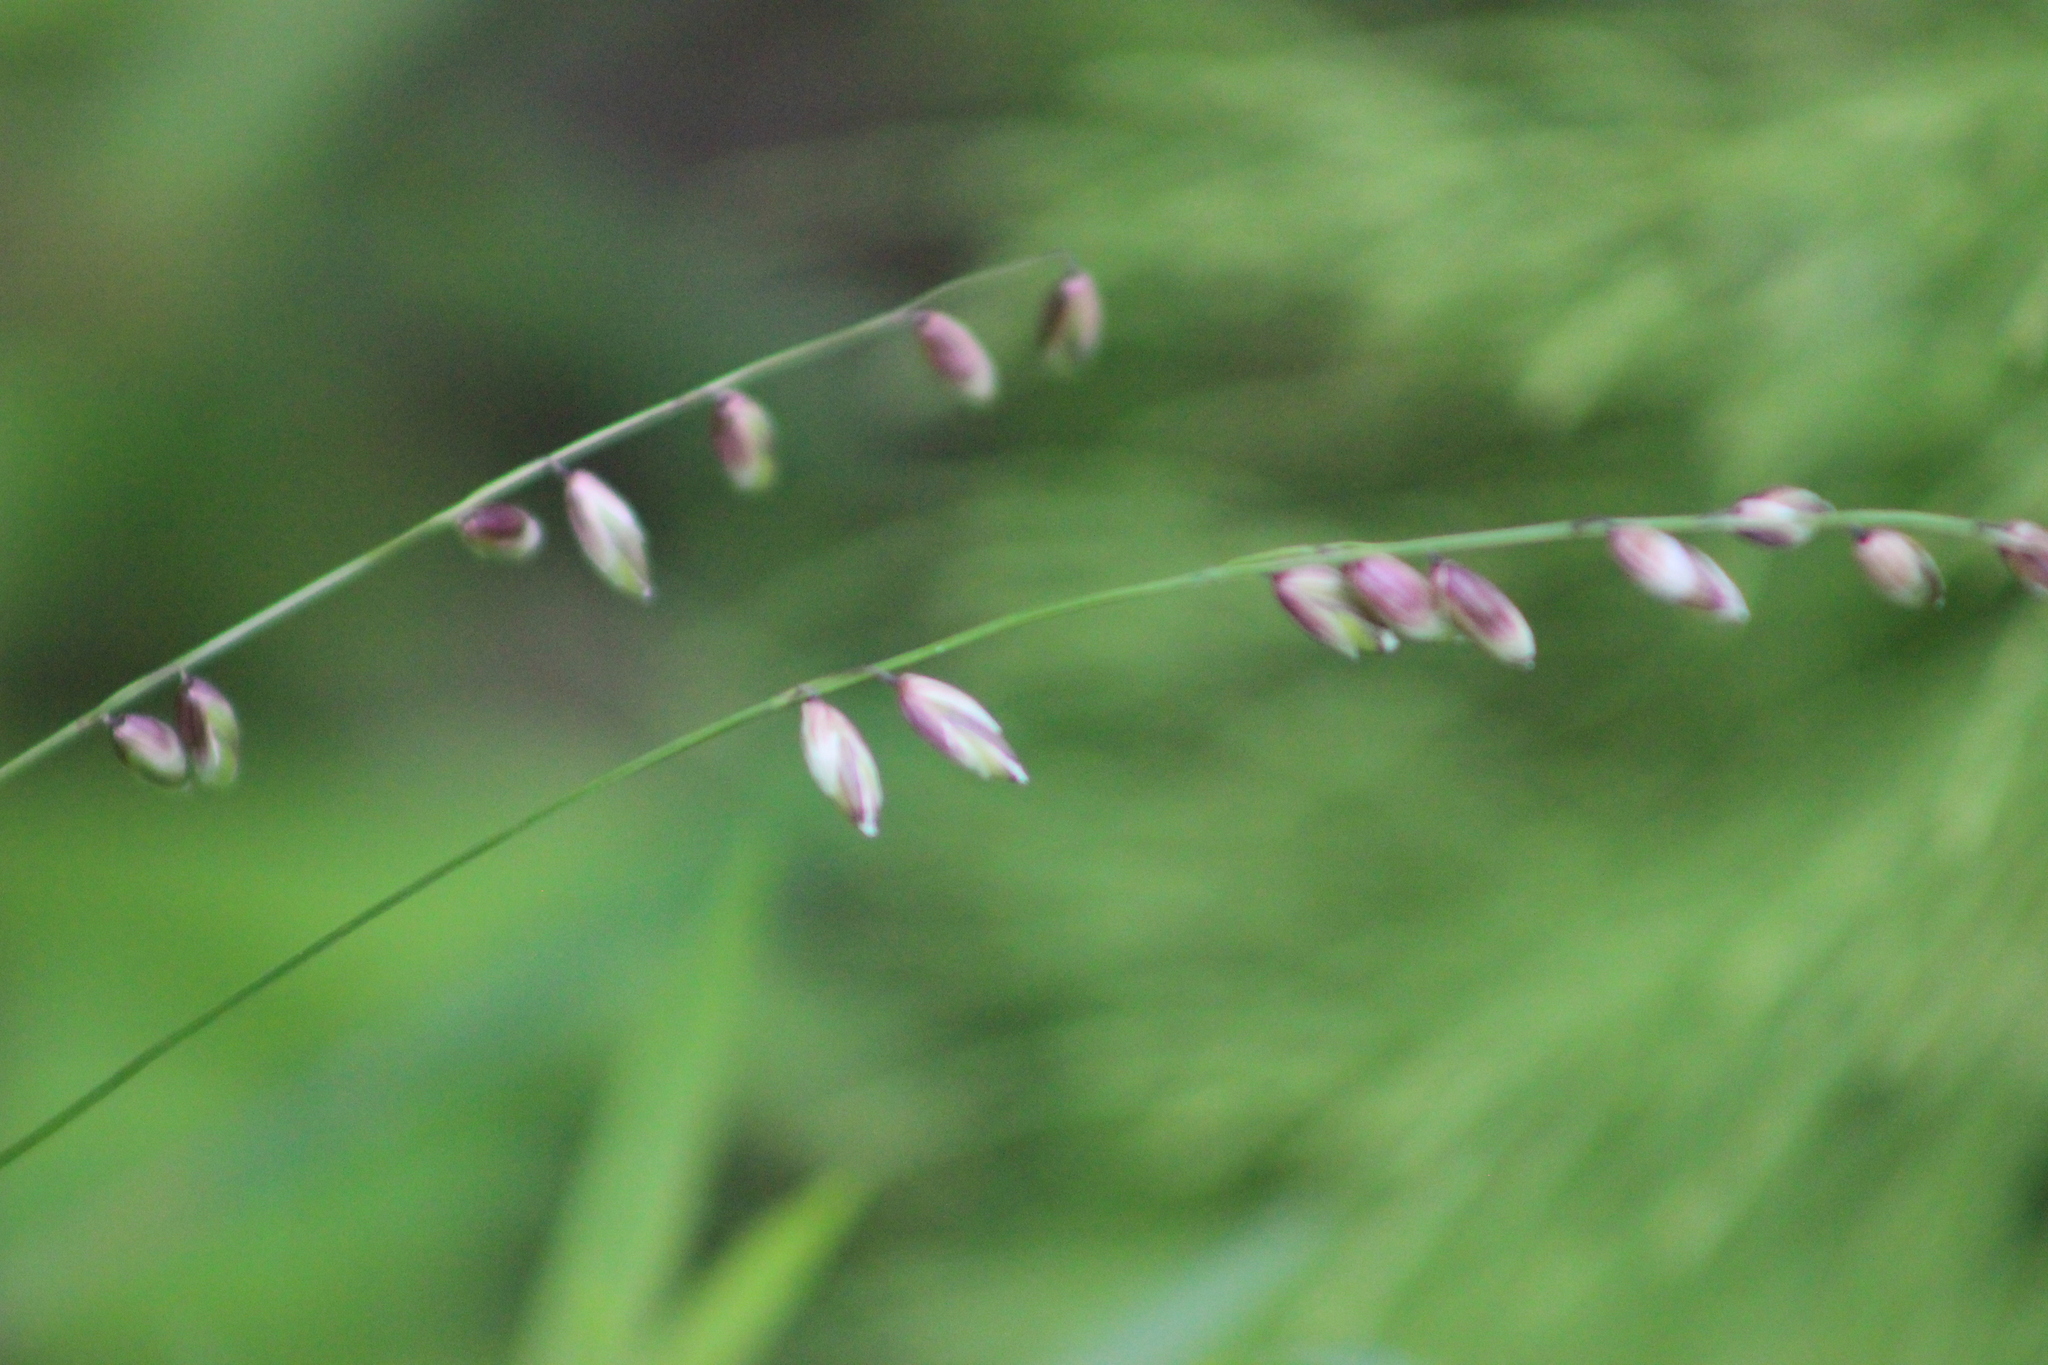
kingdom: Plantae
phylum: Tracheophyta
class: Liliopsida
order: Poales
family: Poaceae
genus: Melica
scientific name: Melica nutans
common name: Mountain melick
